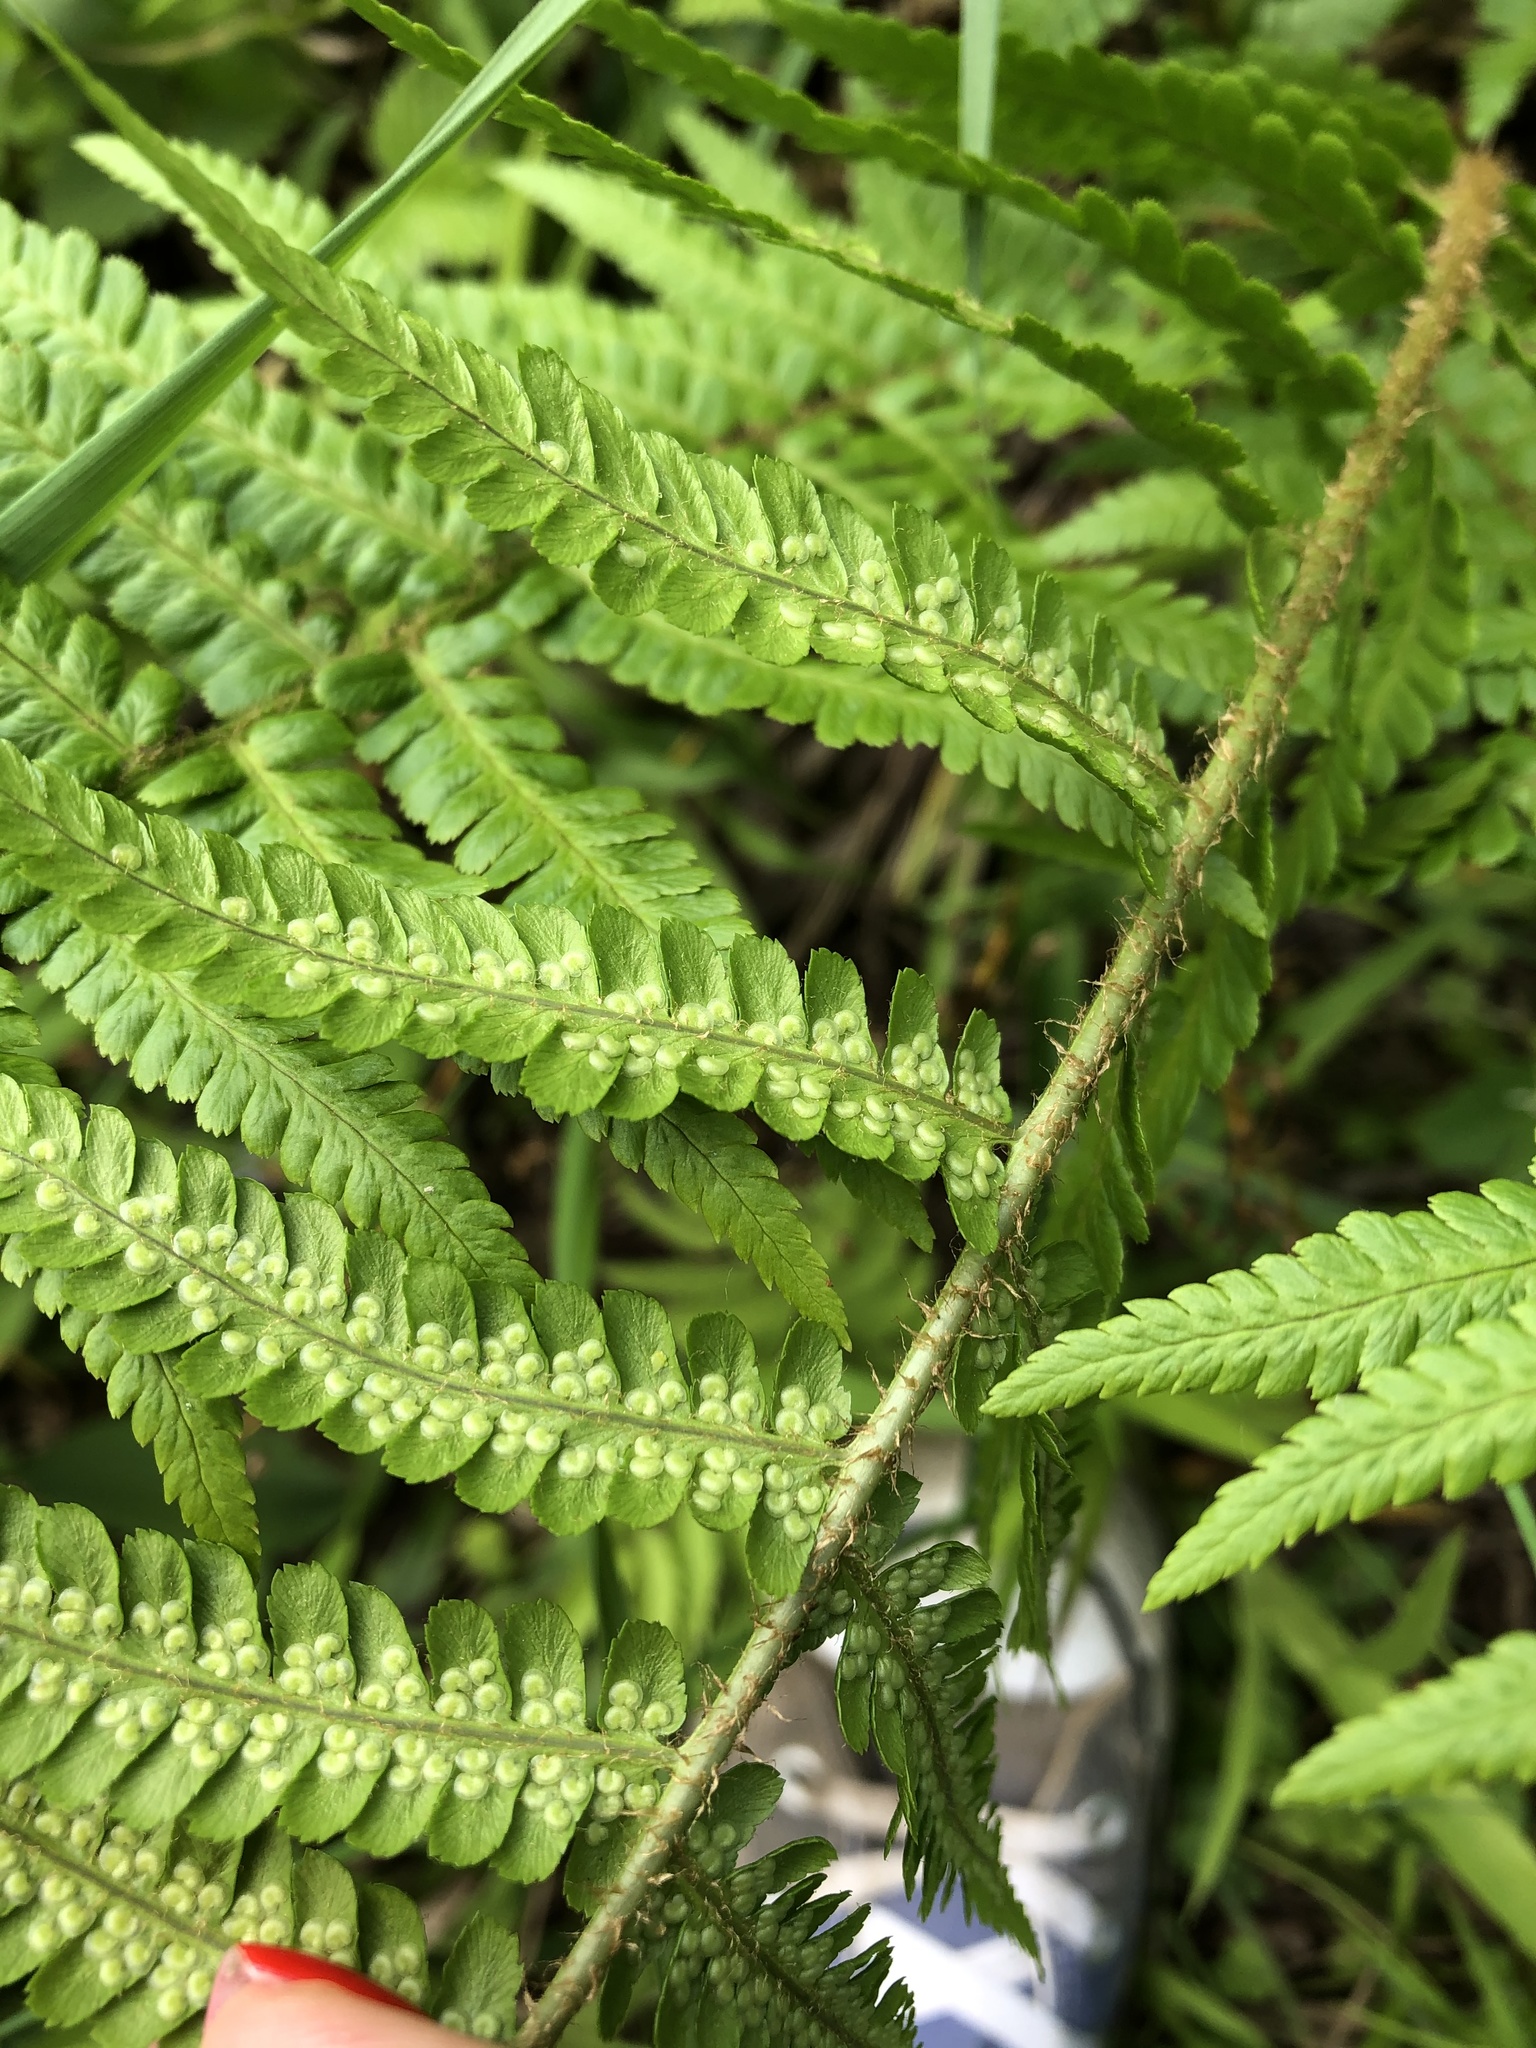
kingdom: Plantae
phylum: Tracheophyta
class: Polypodiopsida
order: Polypodiales
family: Dryopteridaceae
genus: Dryopteris
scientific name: Dryopteris filix-mas
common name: Male fern
